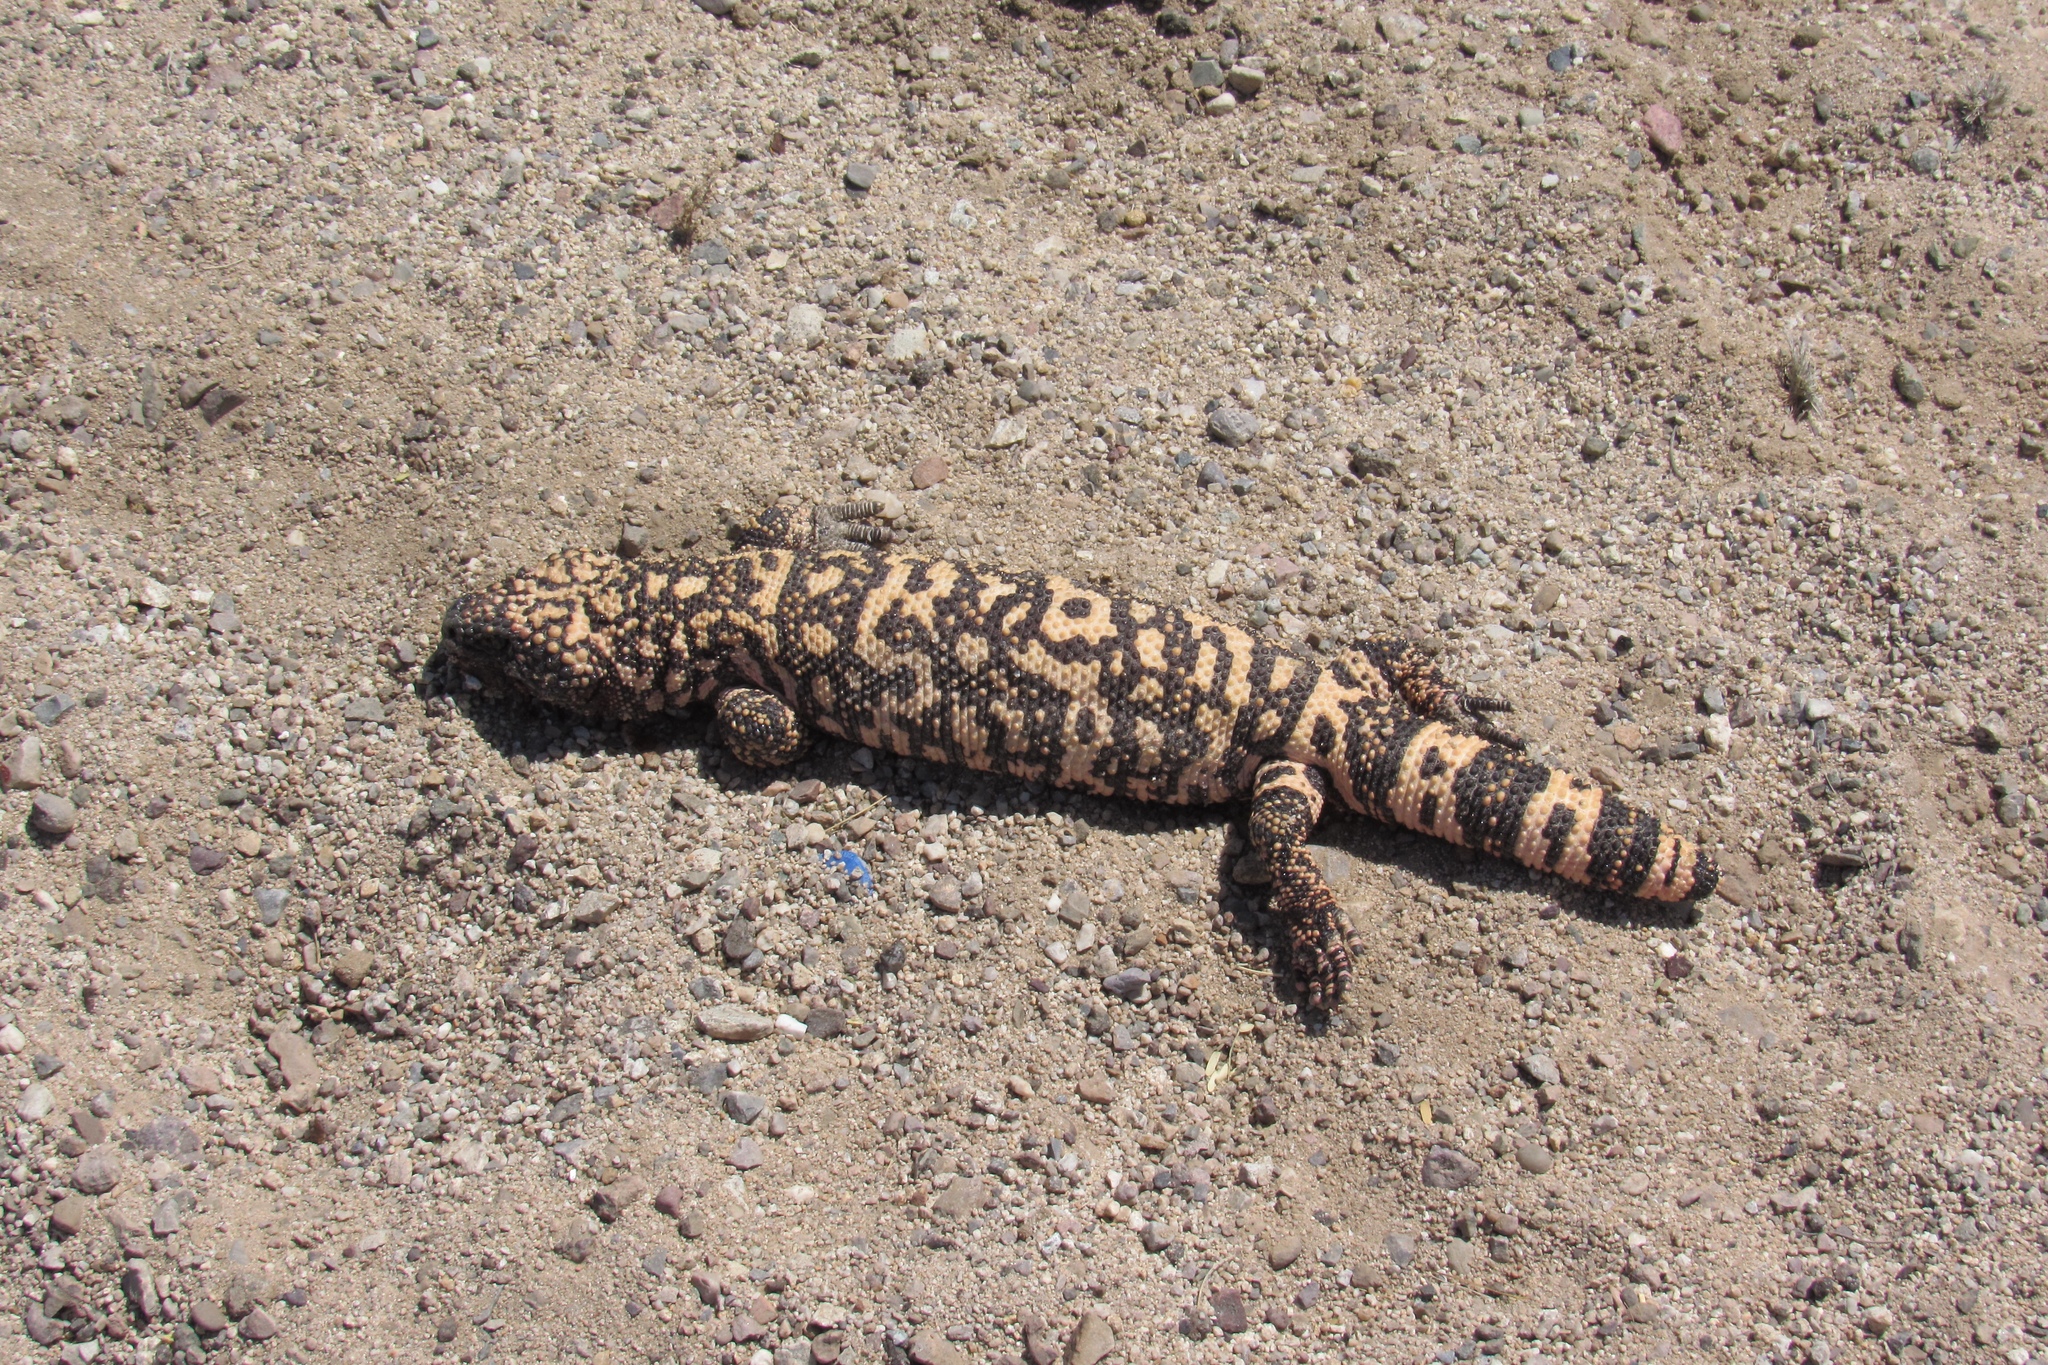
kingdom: Animalia
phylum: Chordata
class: Squamata
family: Helodermatidae
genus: Heloderma
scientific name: Heloderma suspectum
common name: Gila monster
